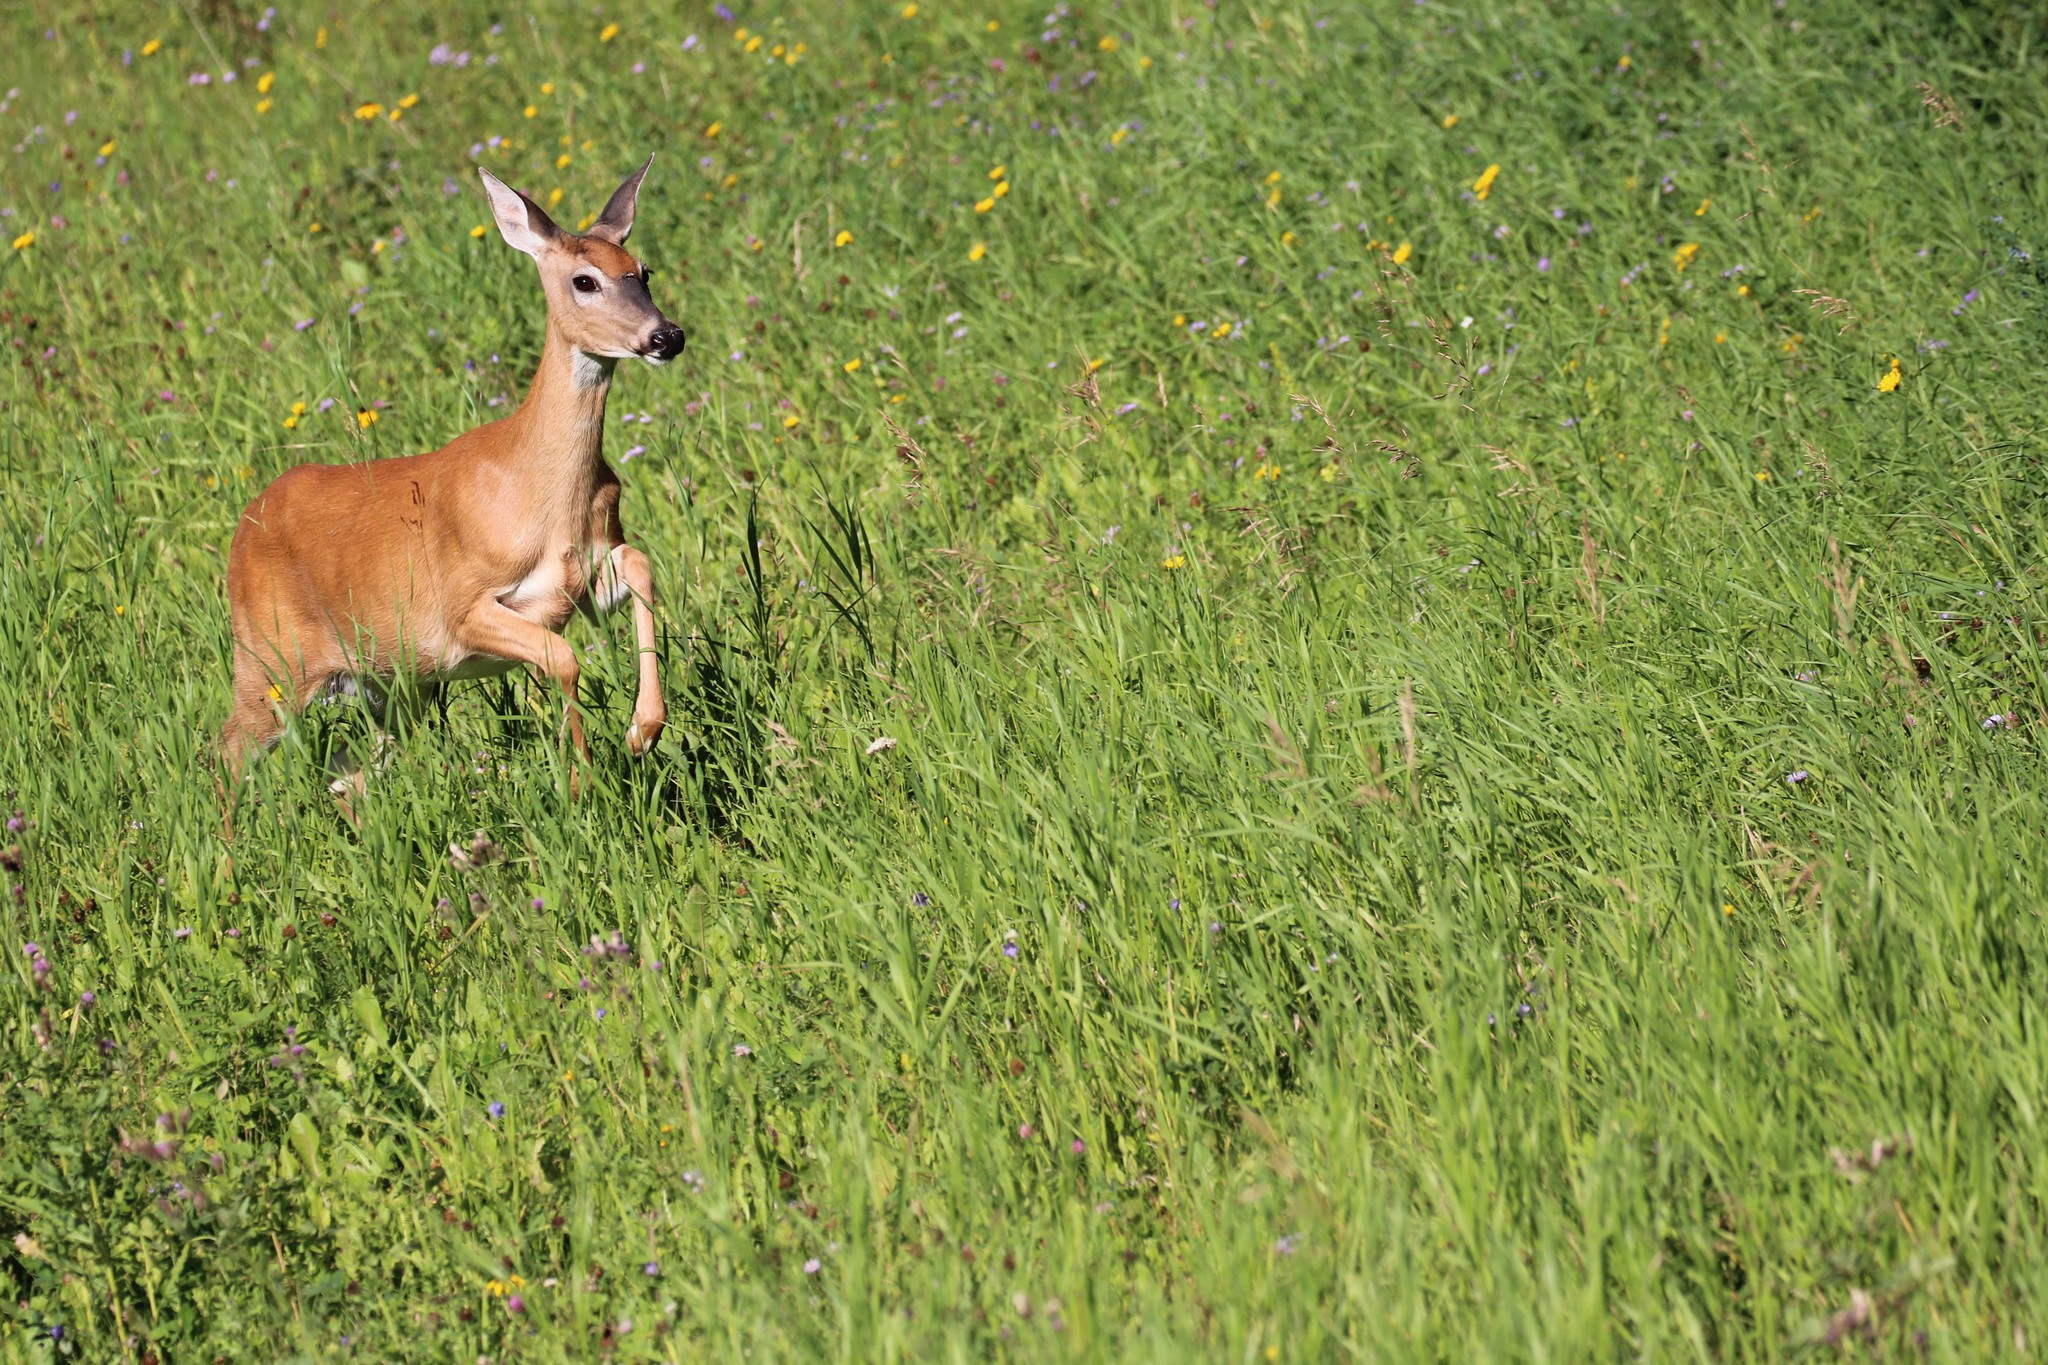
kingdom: Animalia
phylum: Chordata
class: Mammalia
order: Artiodactyla
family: Cervidae
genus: Odocoileus
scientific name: Odocoileus virginianus
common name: White-tailed deer
